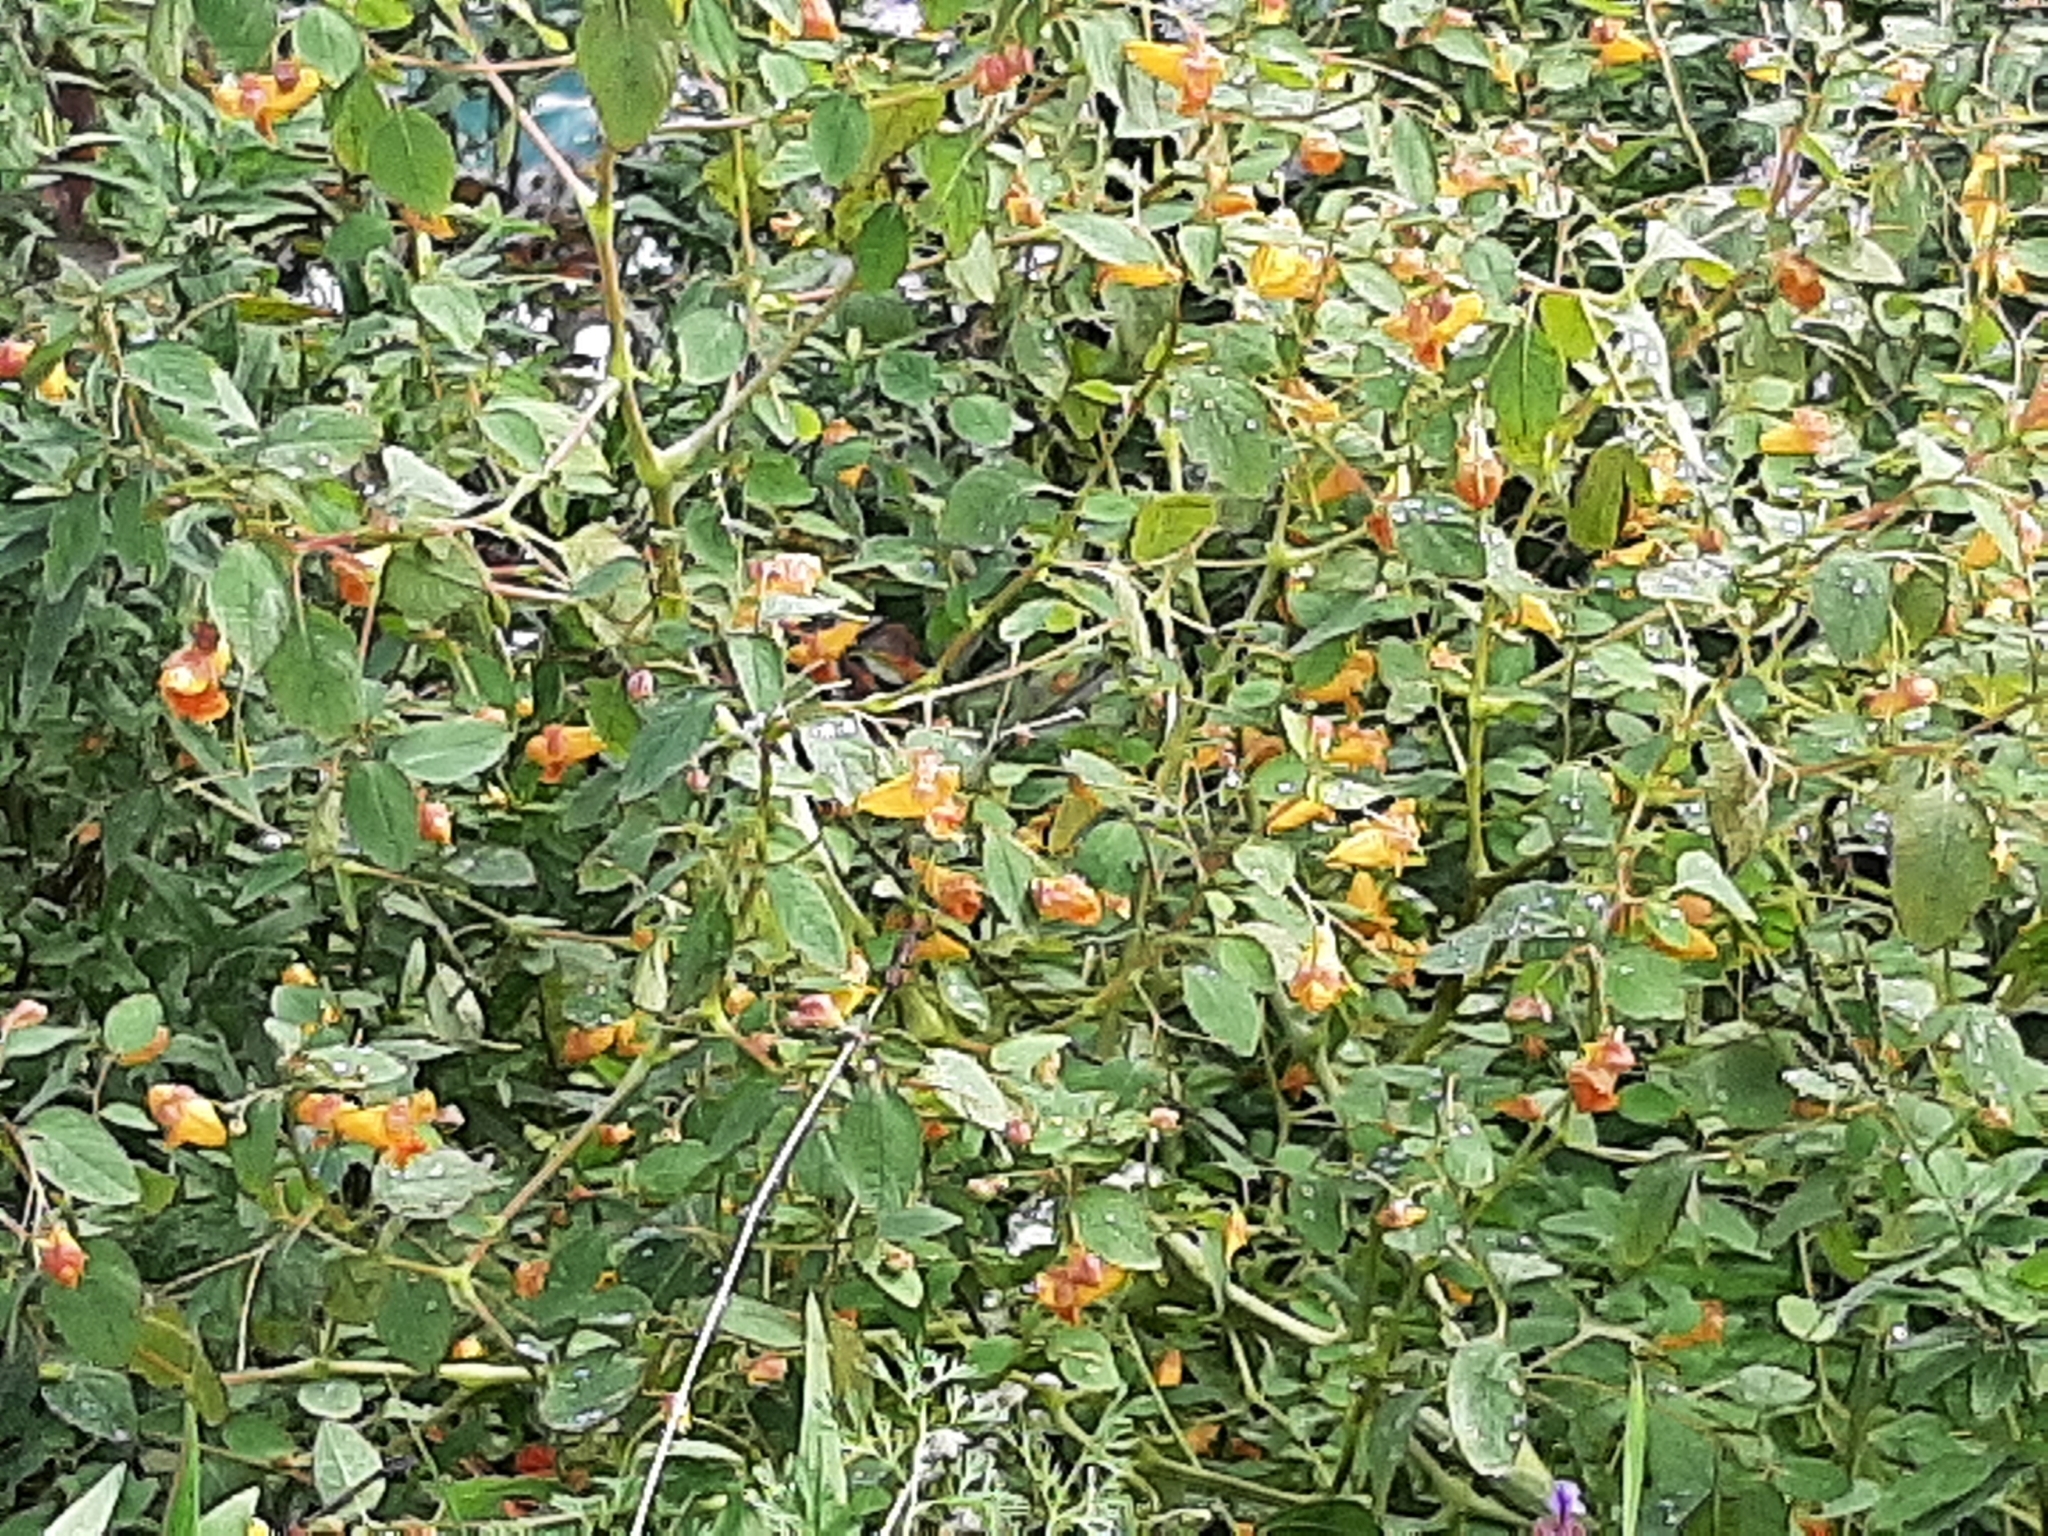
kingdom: Plantae
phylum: Tracheophyta
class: Magnoliopsida
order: Ericales
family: Balsaminaceae
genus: Impatiens
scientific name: Impatiens capensis
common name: Orange balsam
